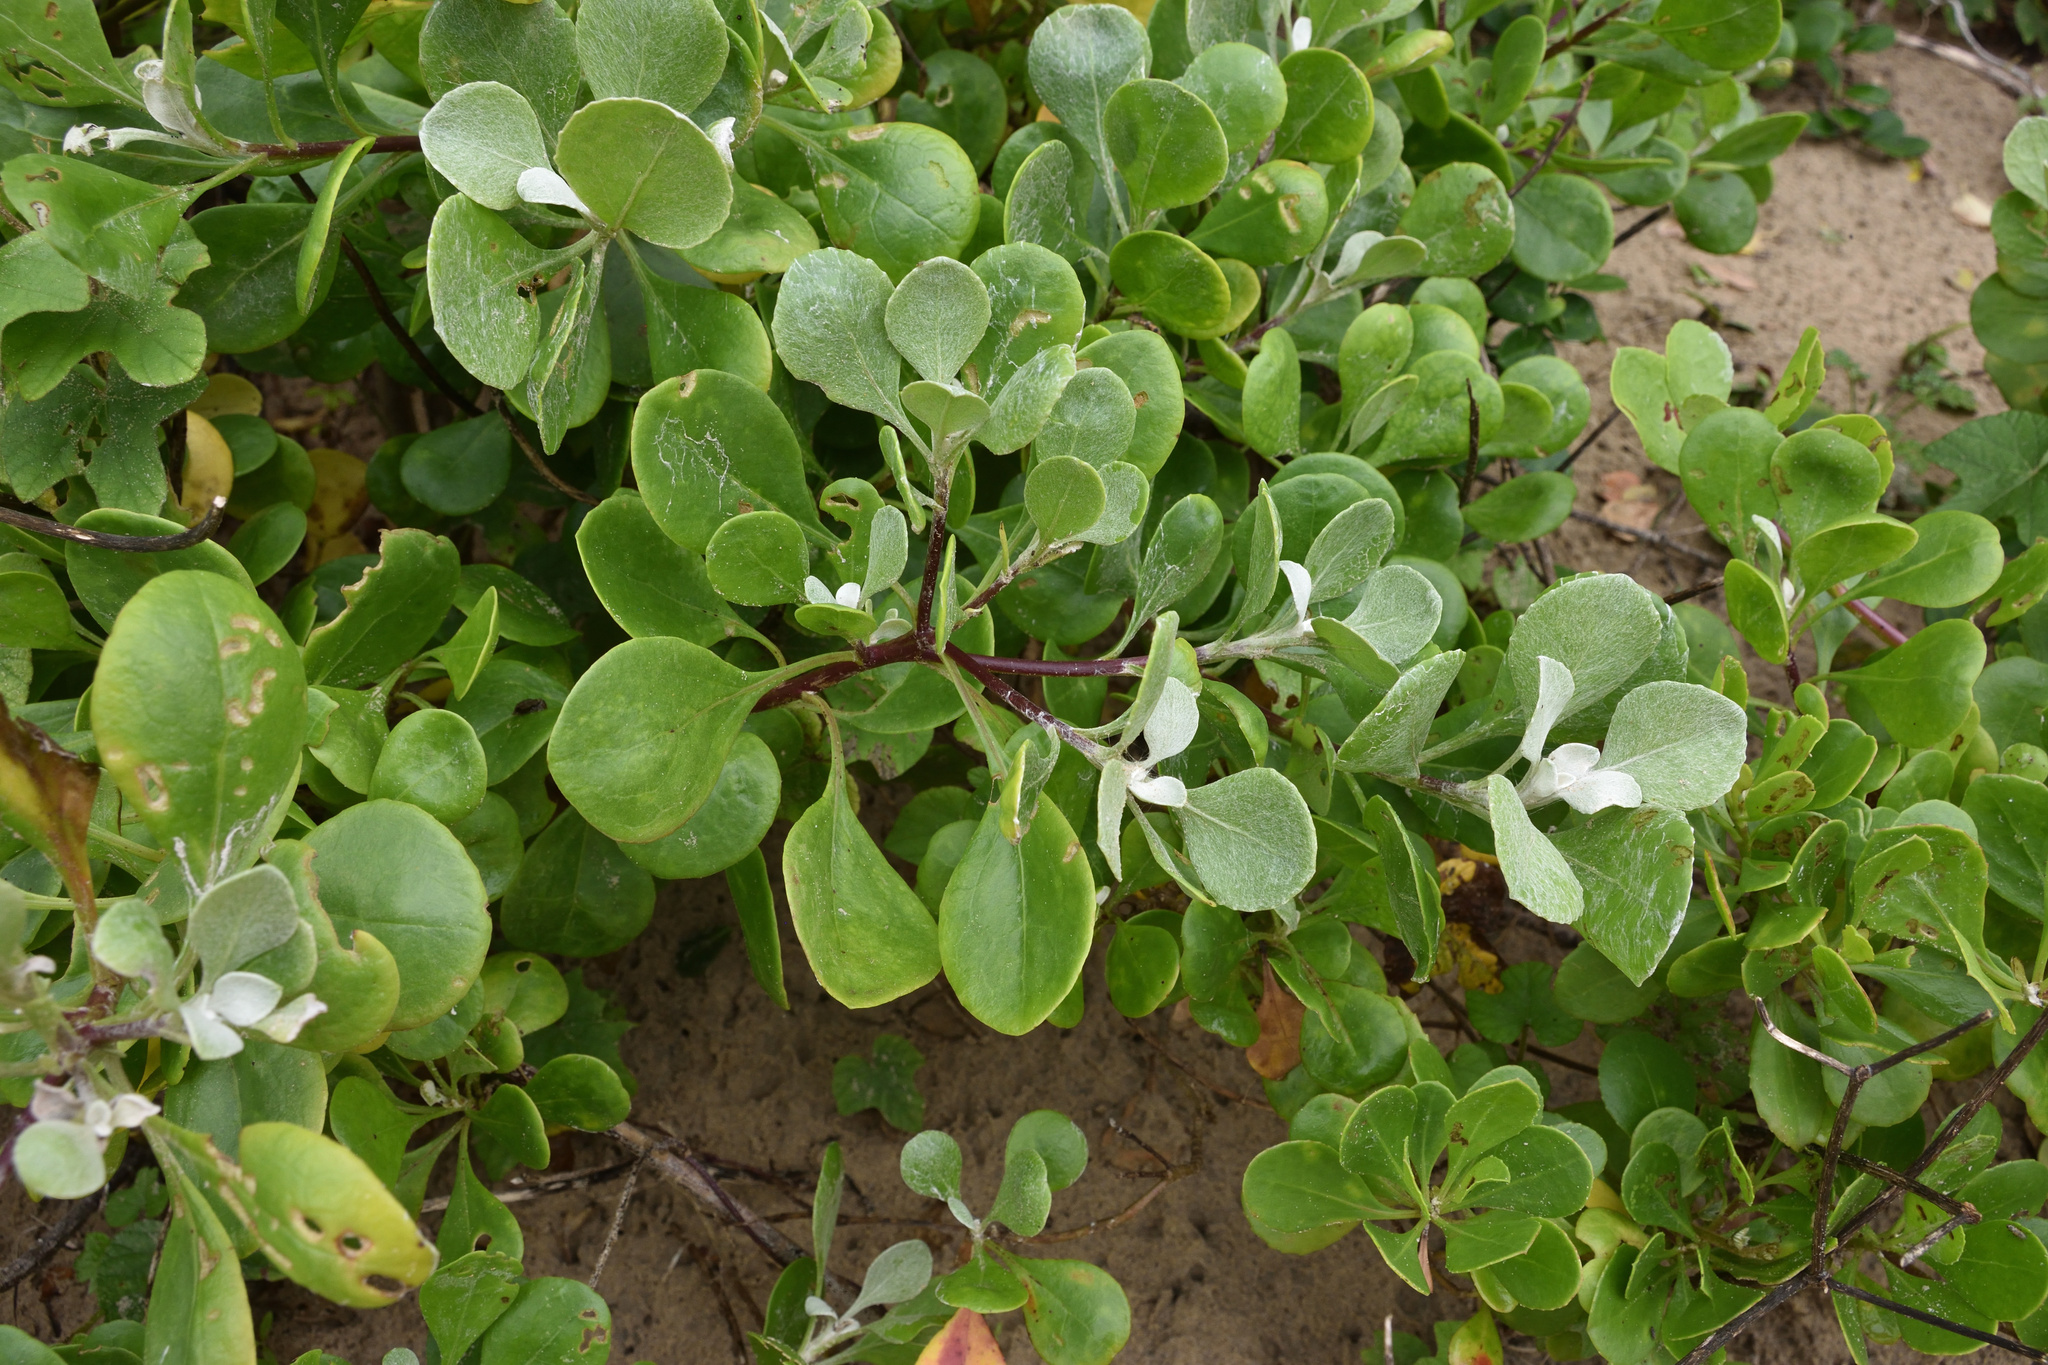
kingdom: Plantae
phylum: Tracheophyta
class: Magnoliopsida
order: Asterales
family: Asteraceae
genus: Osteospermum
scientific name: Osteospermum moniliferum
